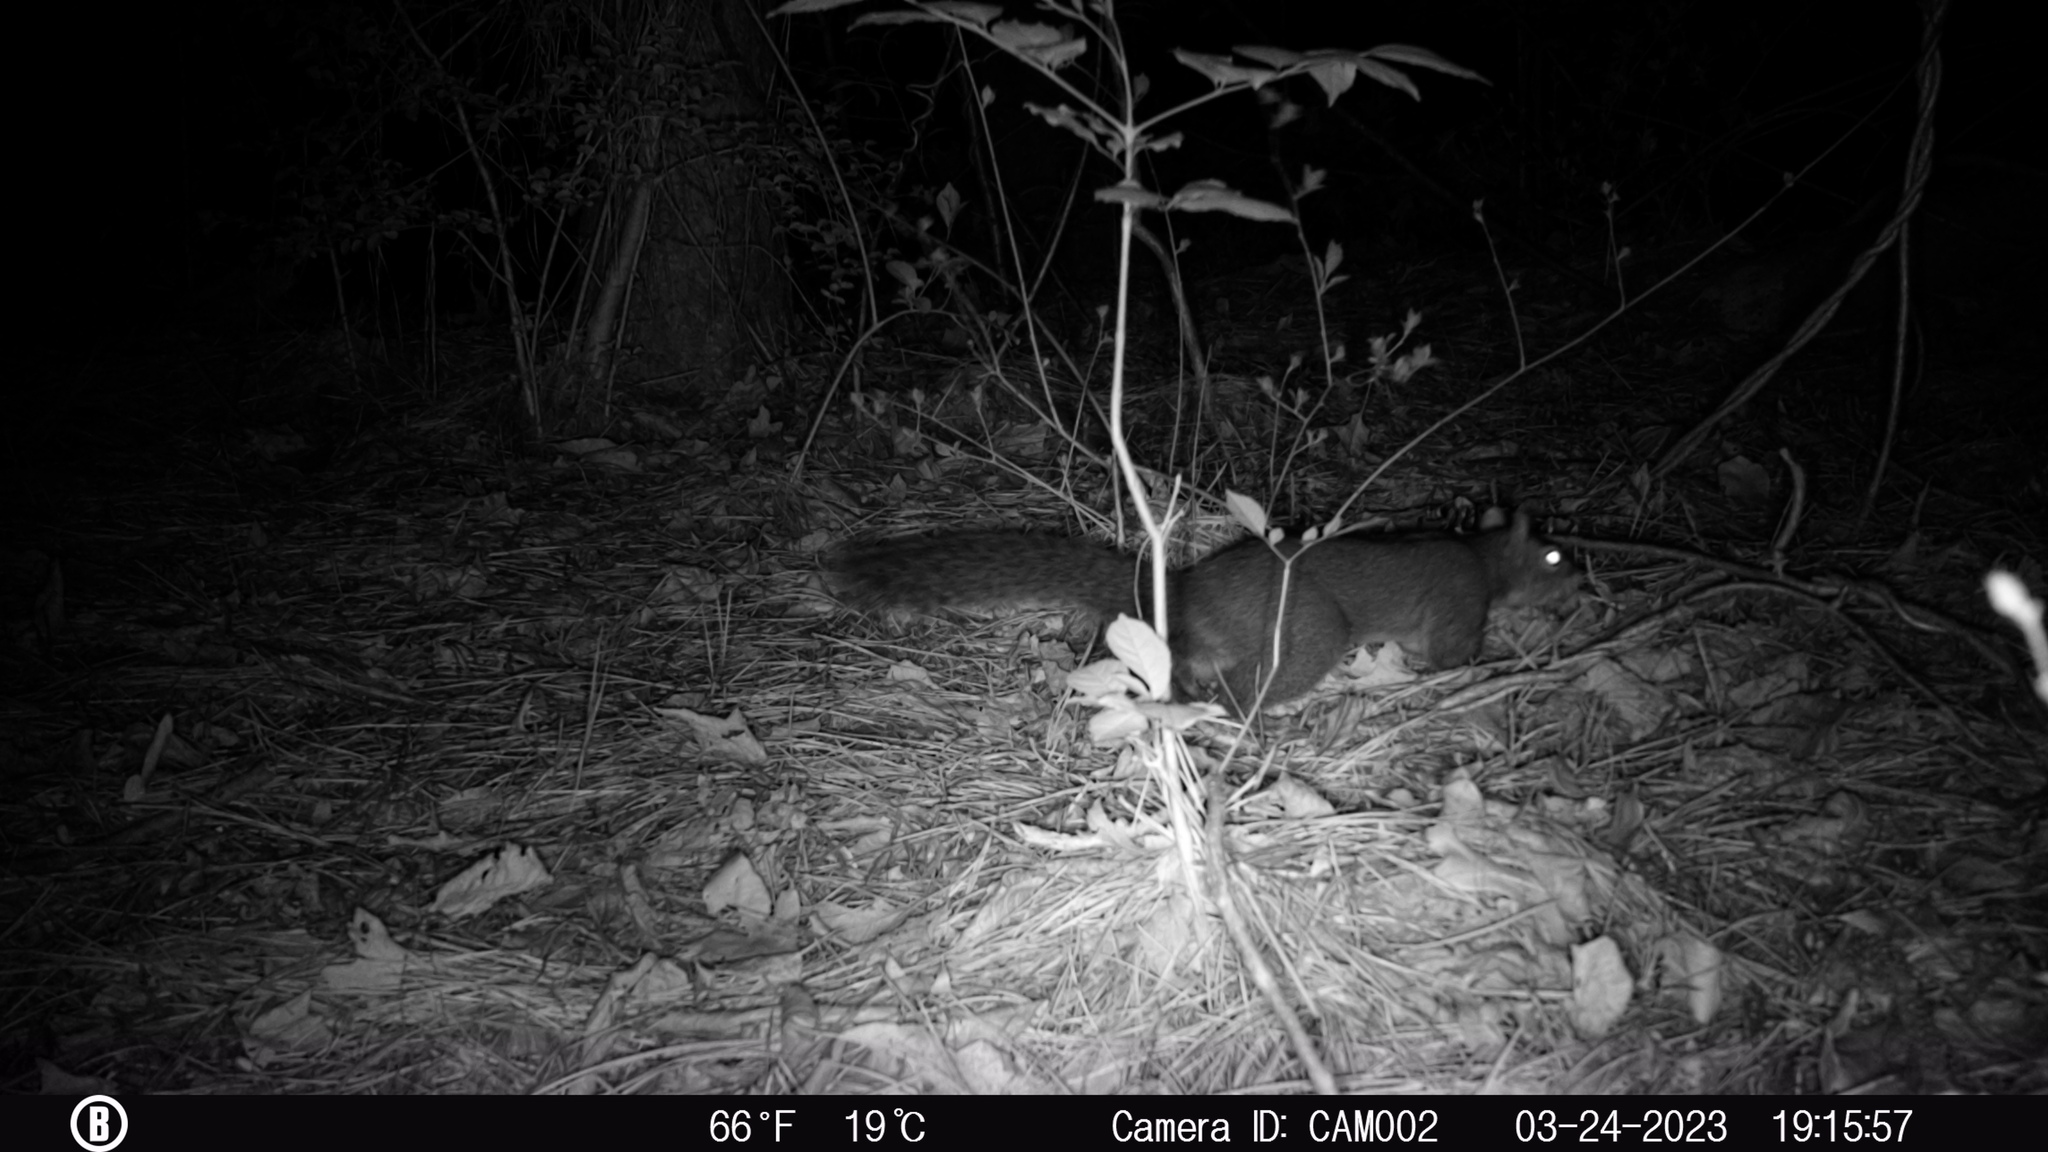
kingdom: Animalia
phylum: Chordata
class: Mammalia
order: Rodentia
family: Sciuridae
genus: Sciurus
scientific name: Sciurus carolinensis
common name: Eastern gray squirrel
